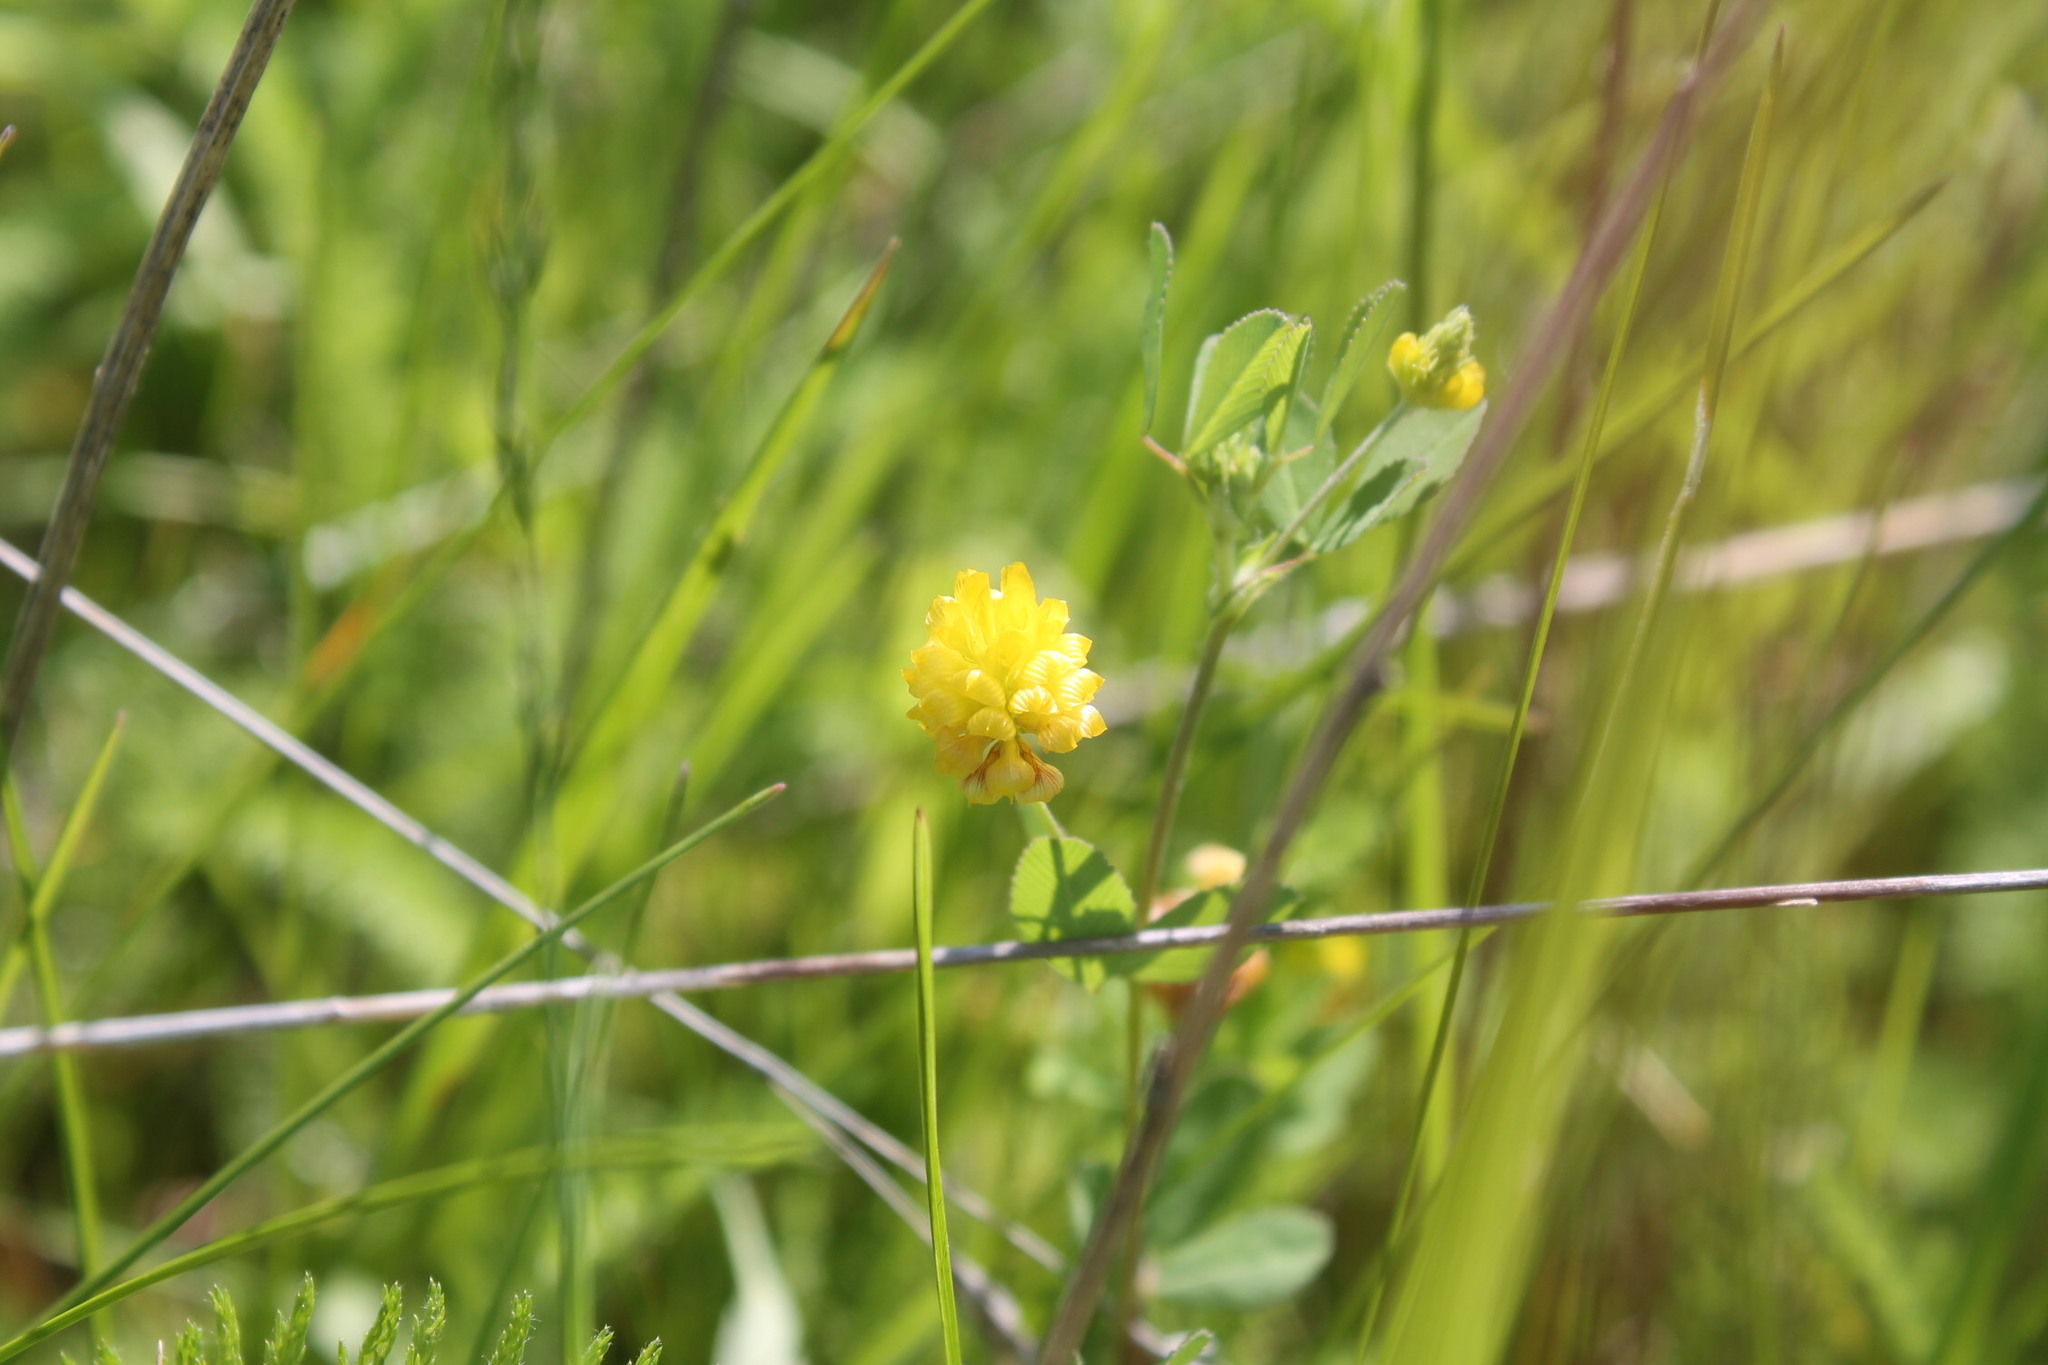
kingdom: Plantae
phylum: Tracheophyta
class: Magnoliopsida
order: Fabales
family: Fabaceae
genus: Trifolium
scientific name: Trifolium campestre
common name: Field clover
